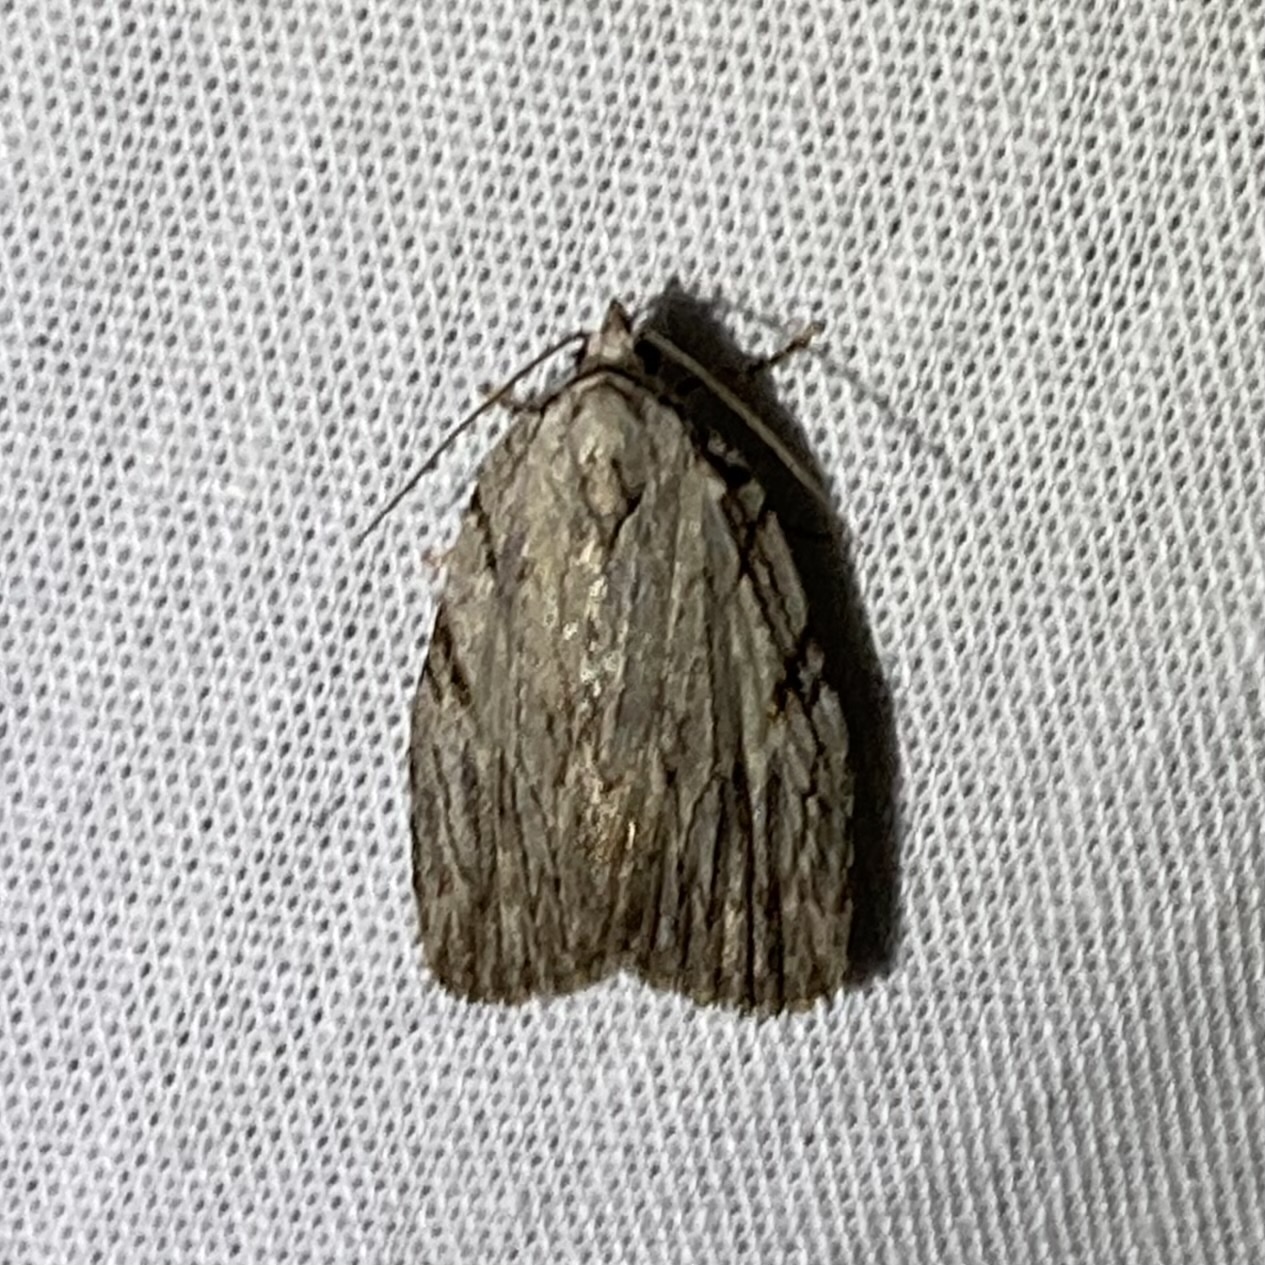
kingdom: Animalia
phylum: Arthropoda
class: Insecta
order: Lepidoptera
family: Noctuidae
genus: Balsa
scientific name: Balsa tristrigella
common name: Three-lined balsa moth
